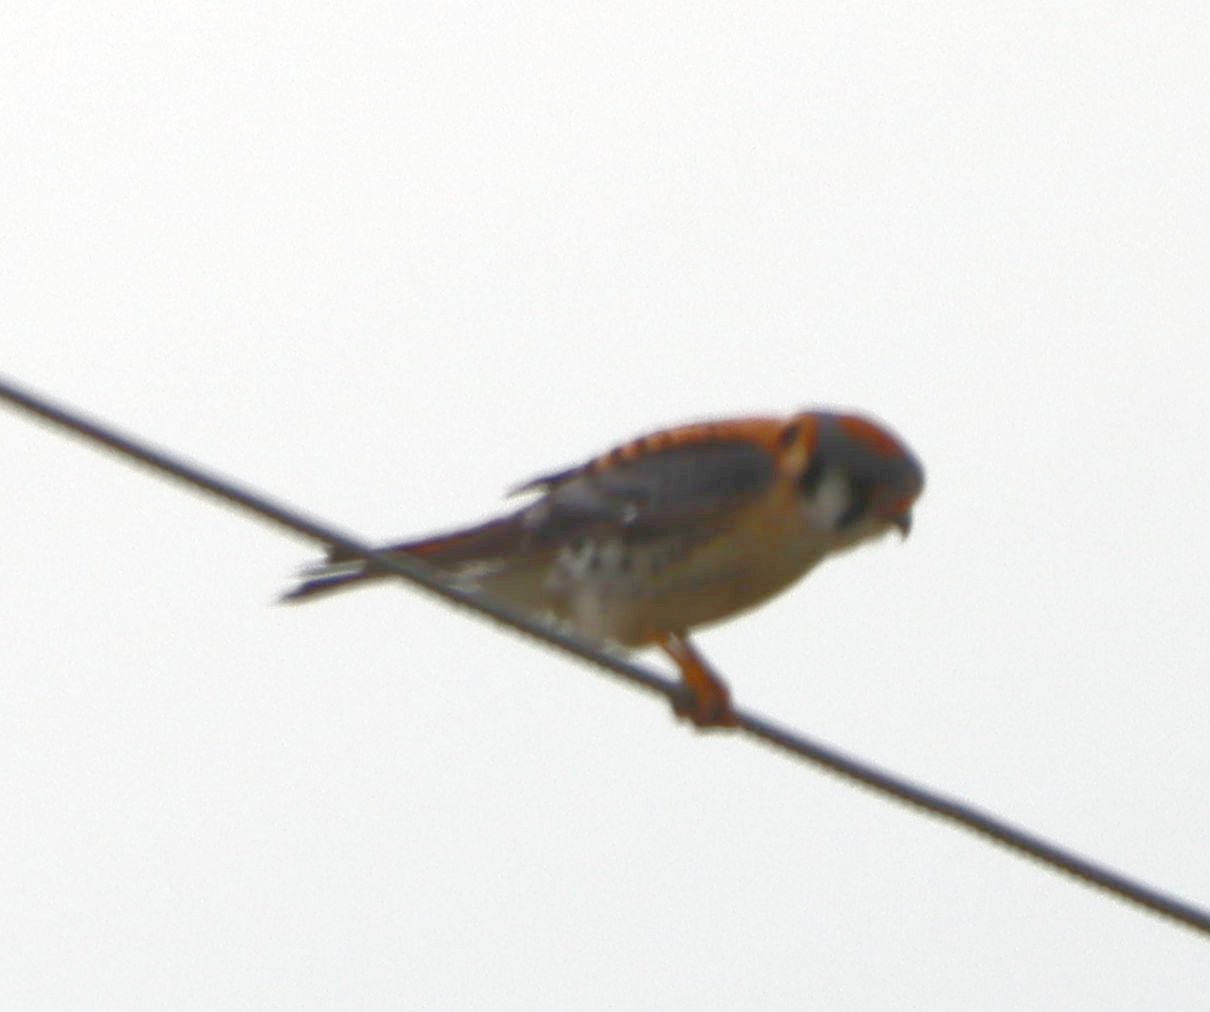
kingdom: Animalia
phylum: Chordata
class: Aves
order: Falconiformes
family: Falconidae
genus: Falco
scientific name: Falco sparverius
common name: American kestrel
